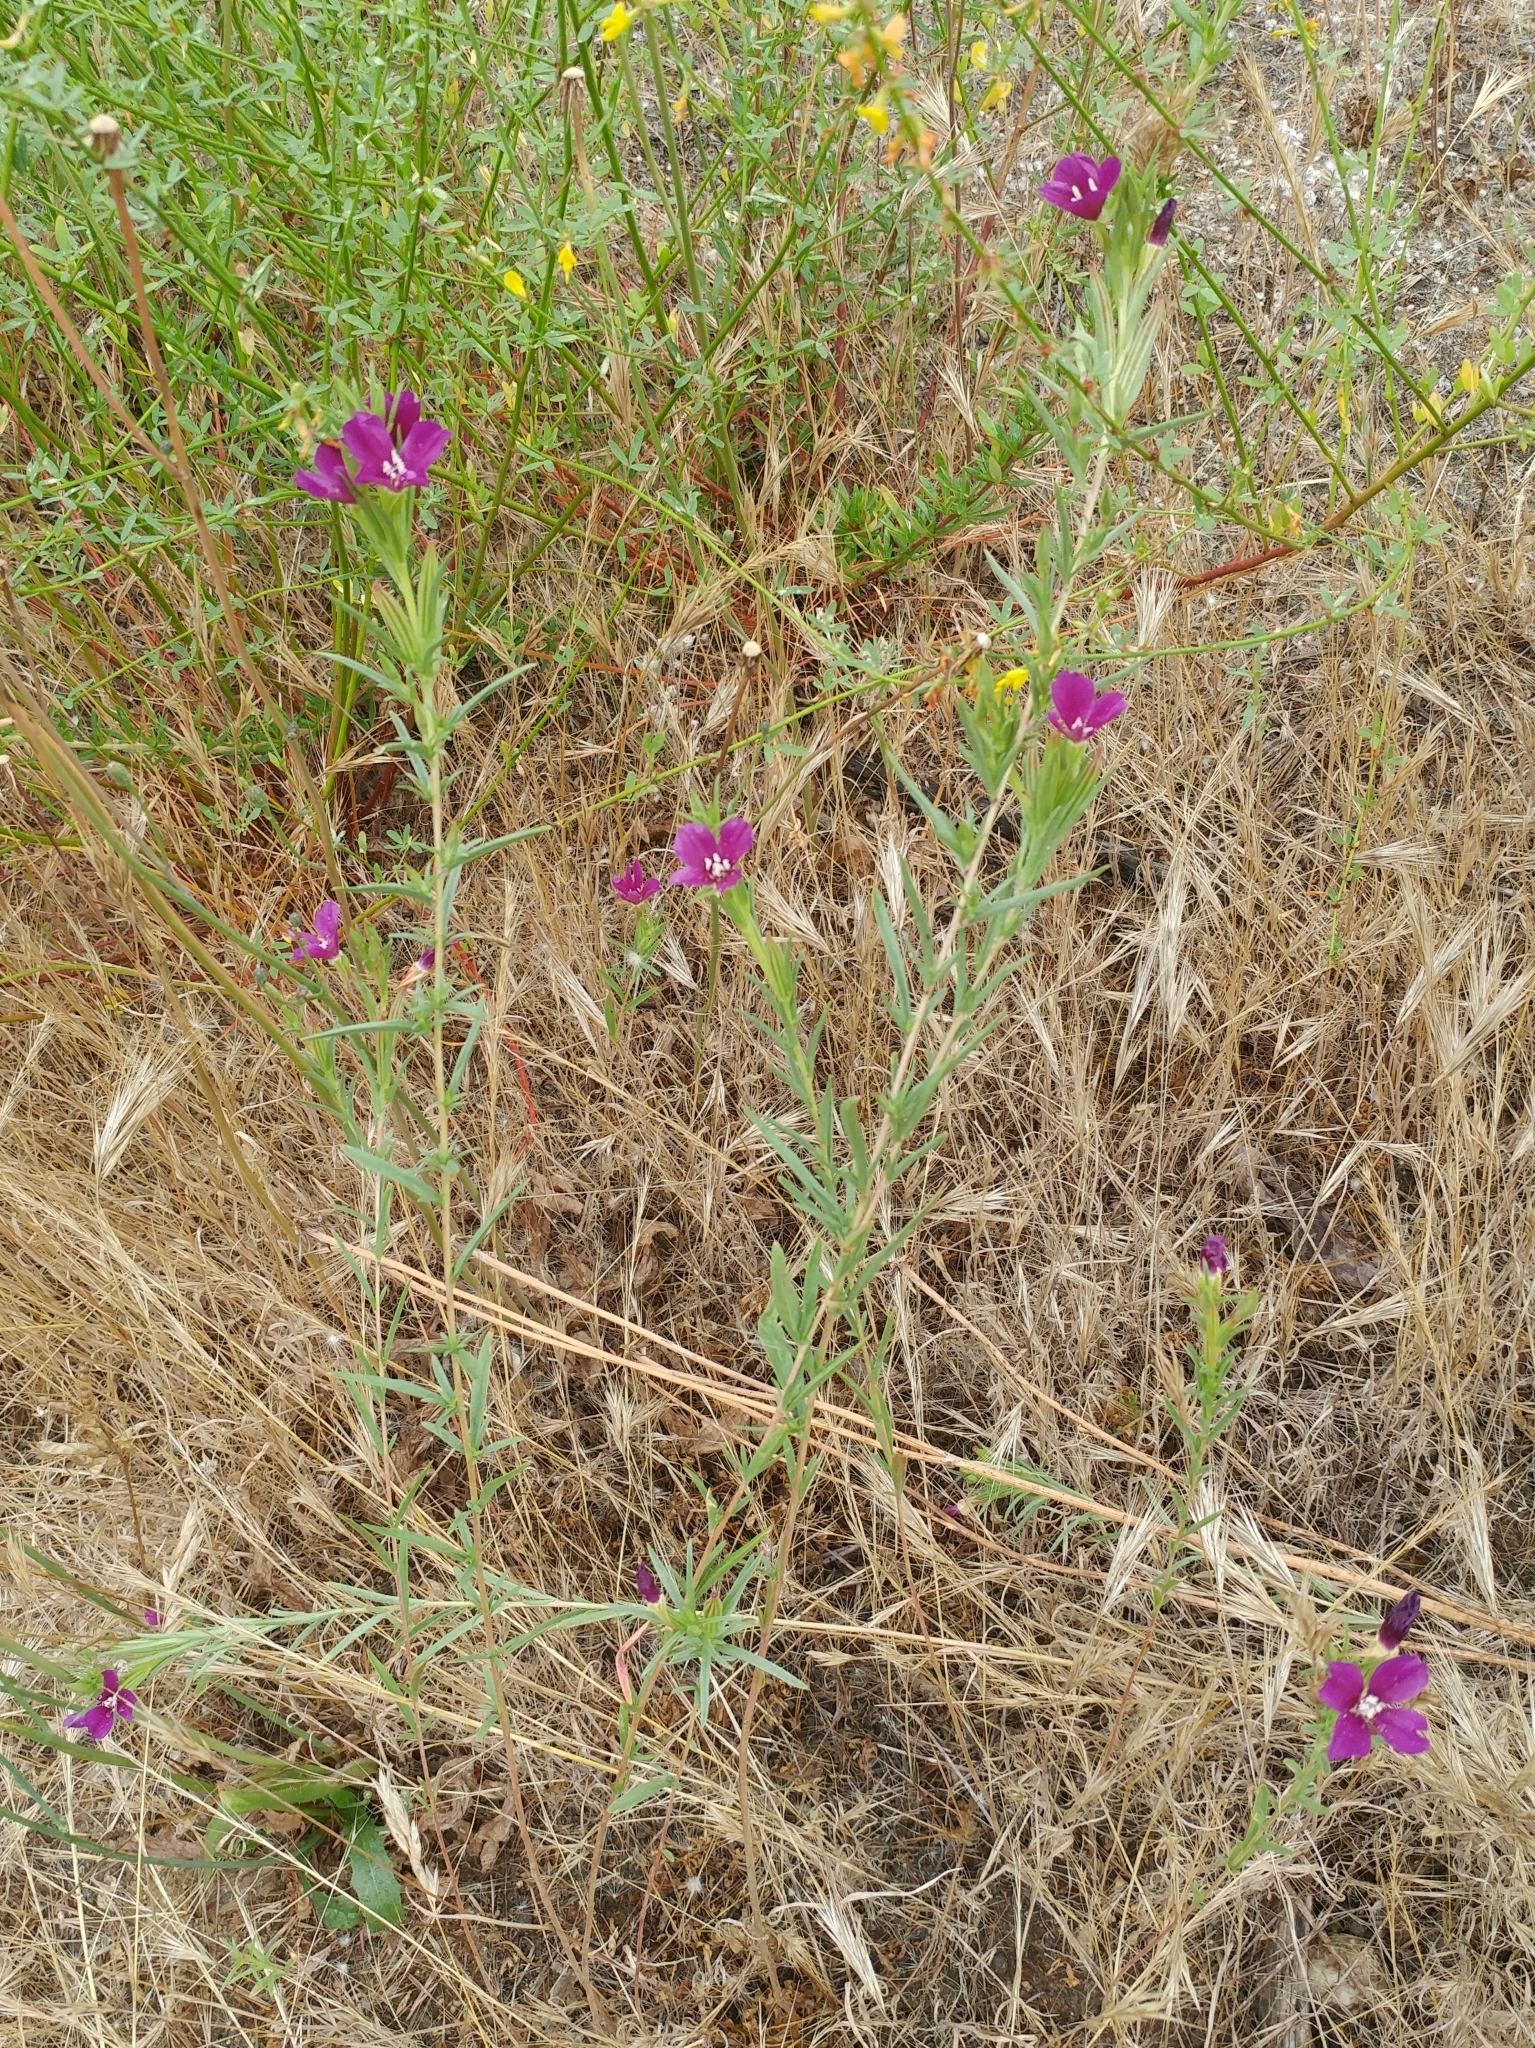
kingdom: Plantae
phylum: Tracheophyta
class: Magnoliopsida
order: Myrtales
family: Onagraceae
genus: Clarkia
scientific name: Clarkia purpurea
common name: Purple clarkia
